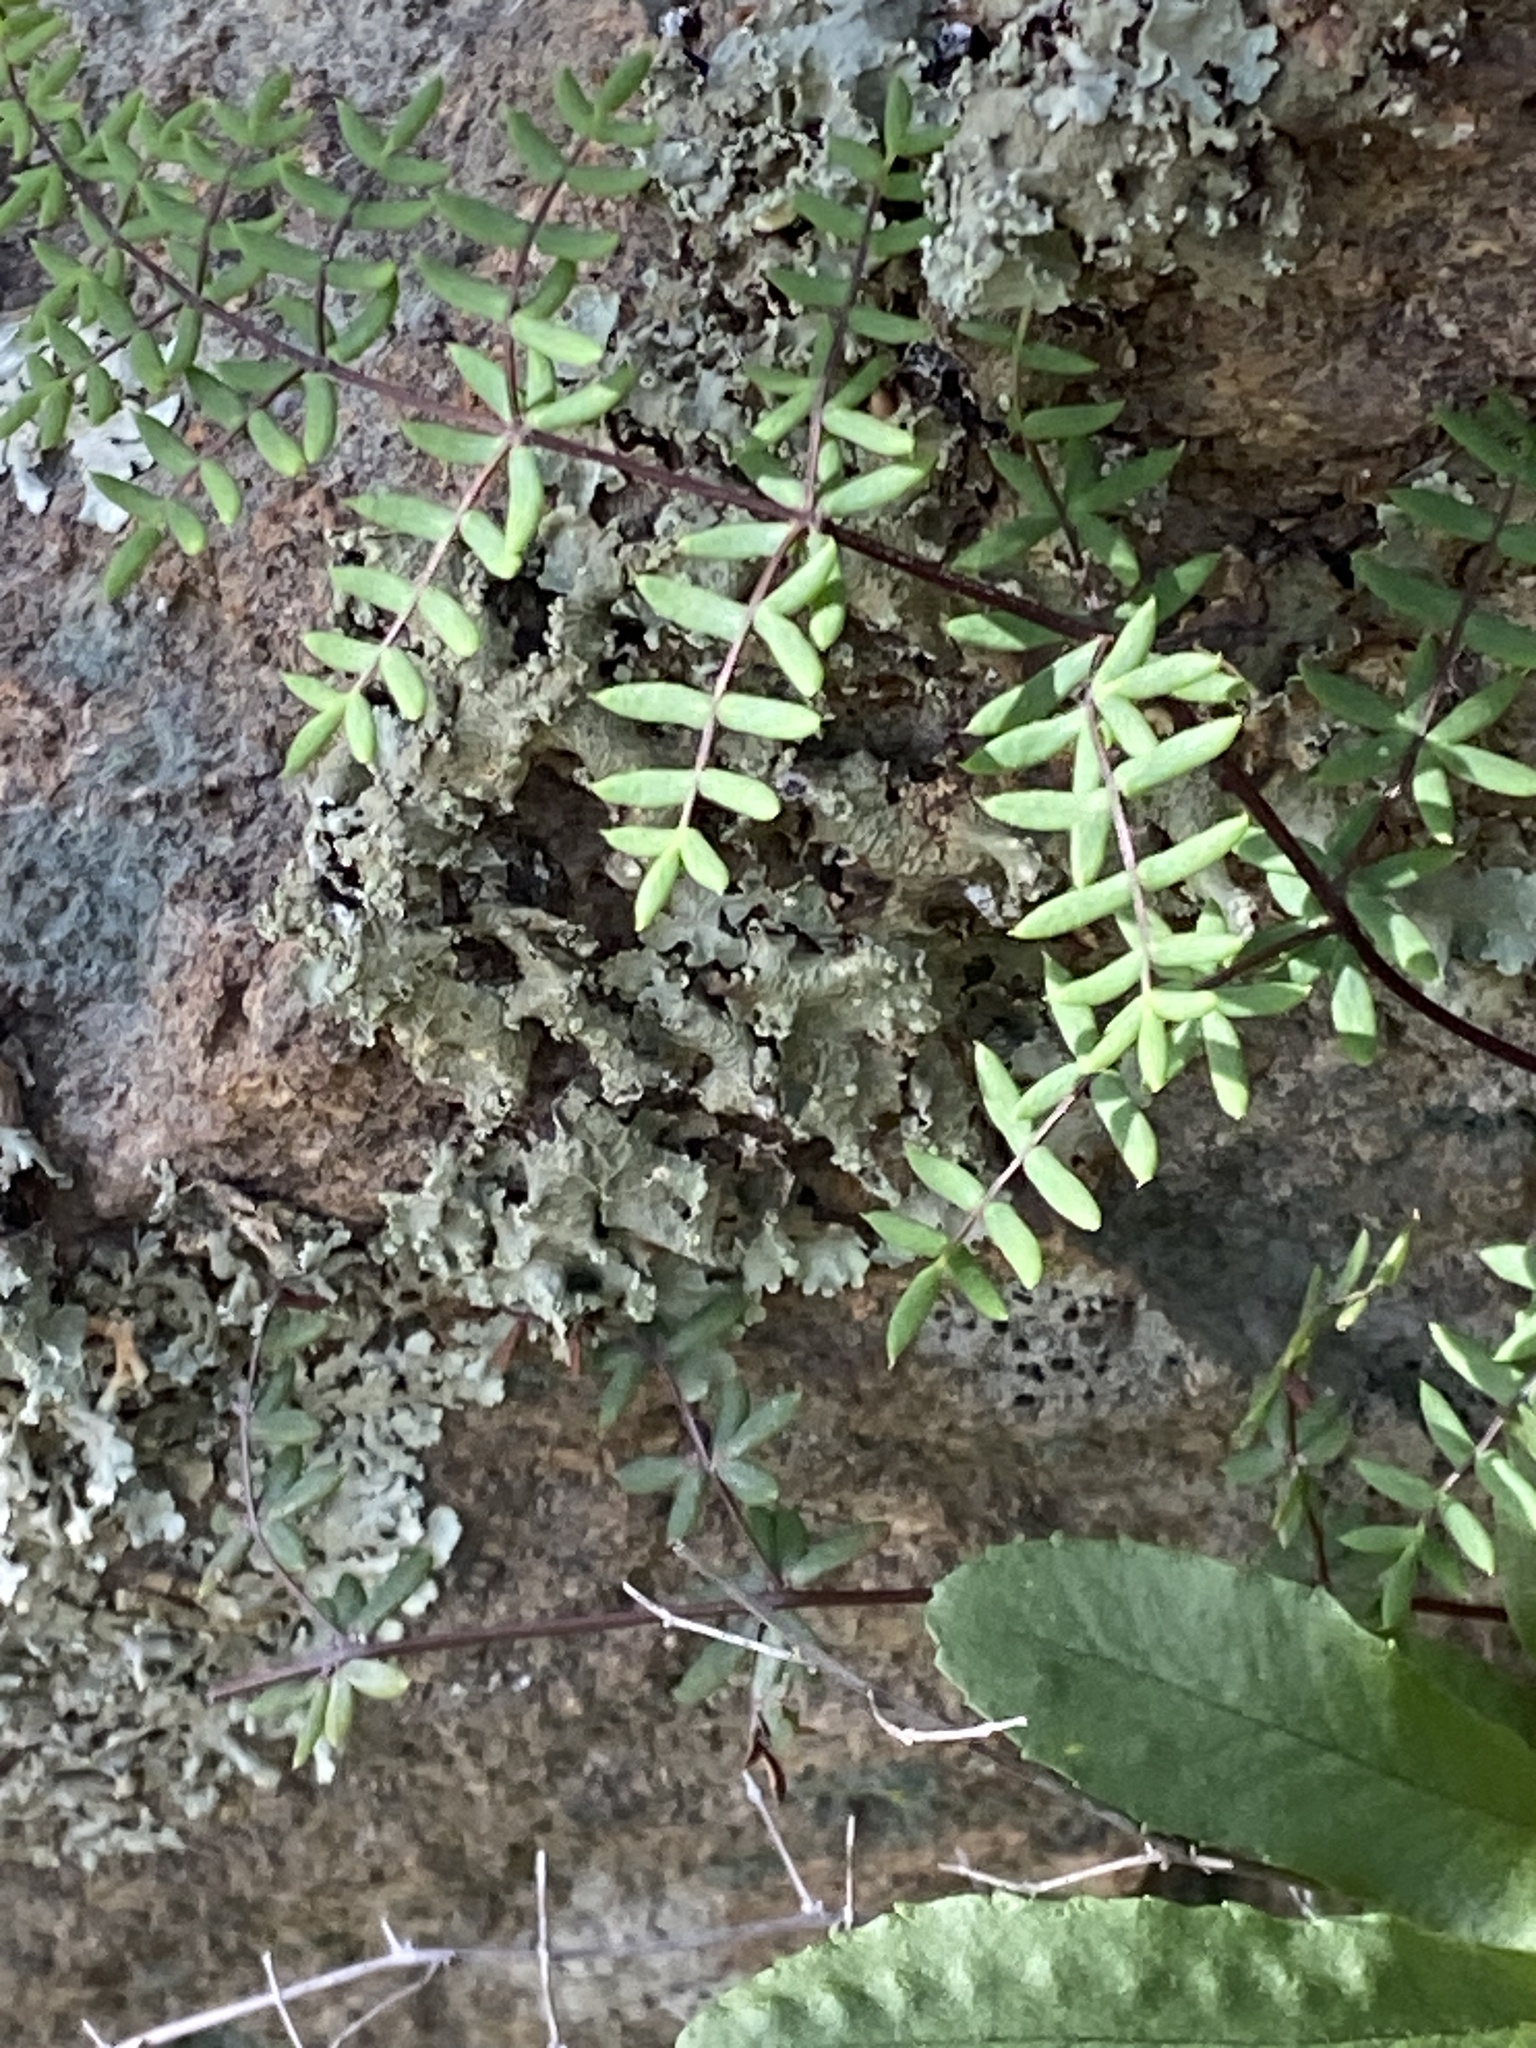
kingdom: Plantae
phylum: Tracheophyta
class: Polypodiopsida
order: Polypodiales
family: Pteridaceae
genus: Pellaea
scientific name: Pellaea mucronata
